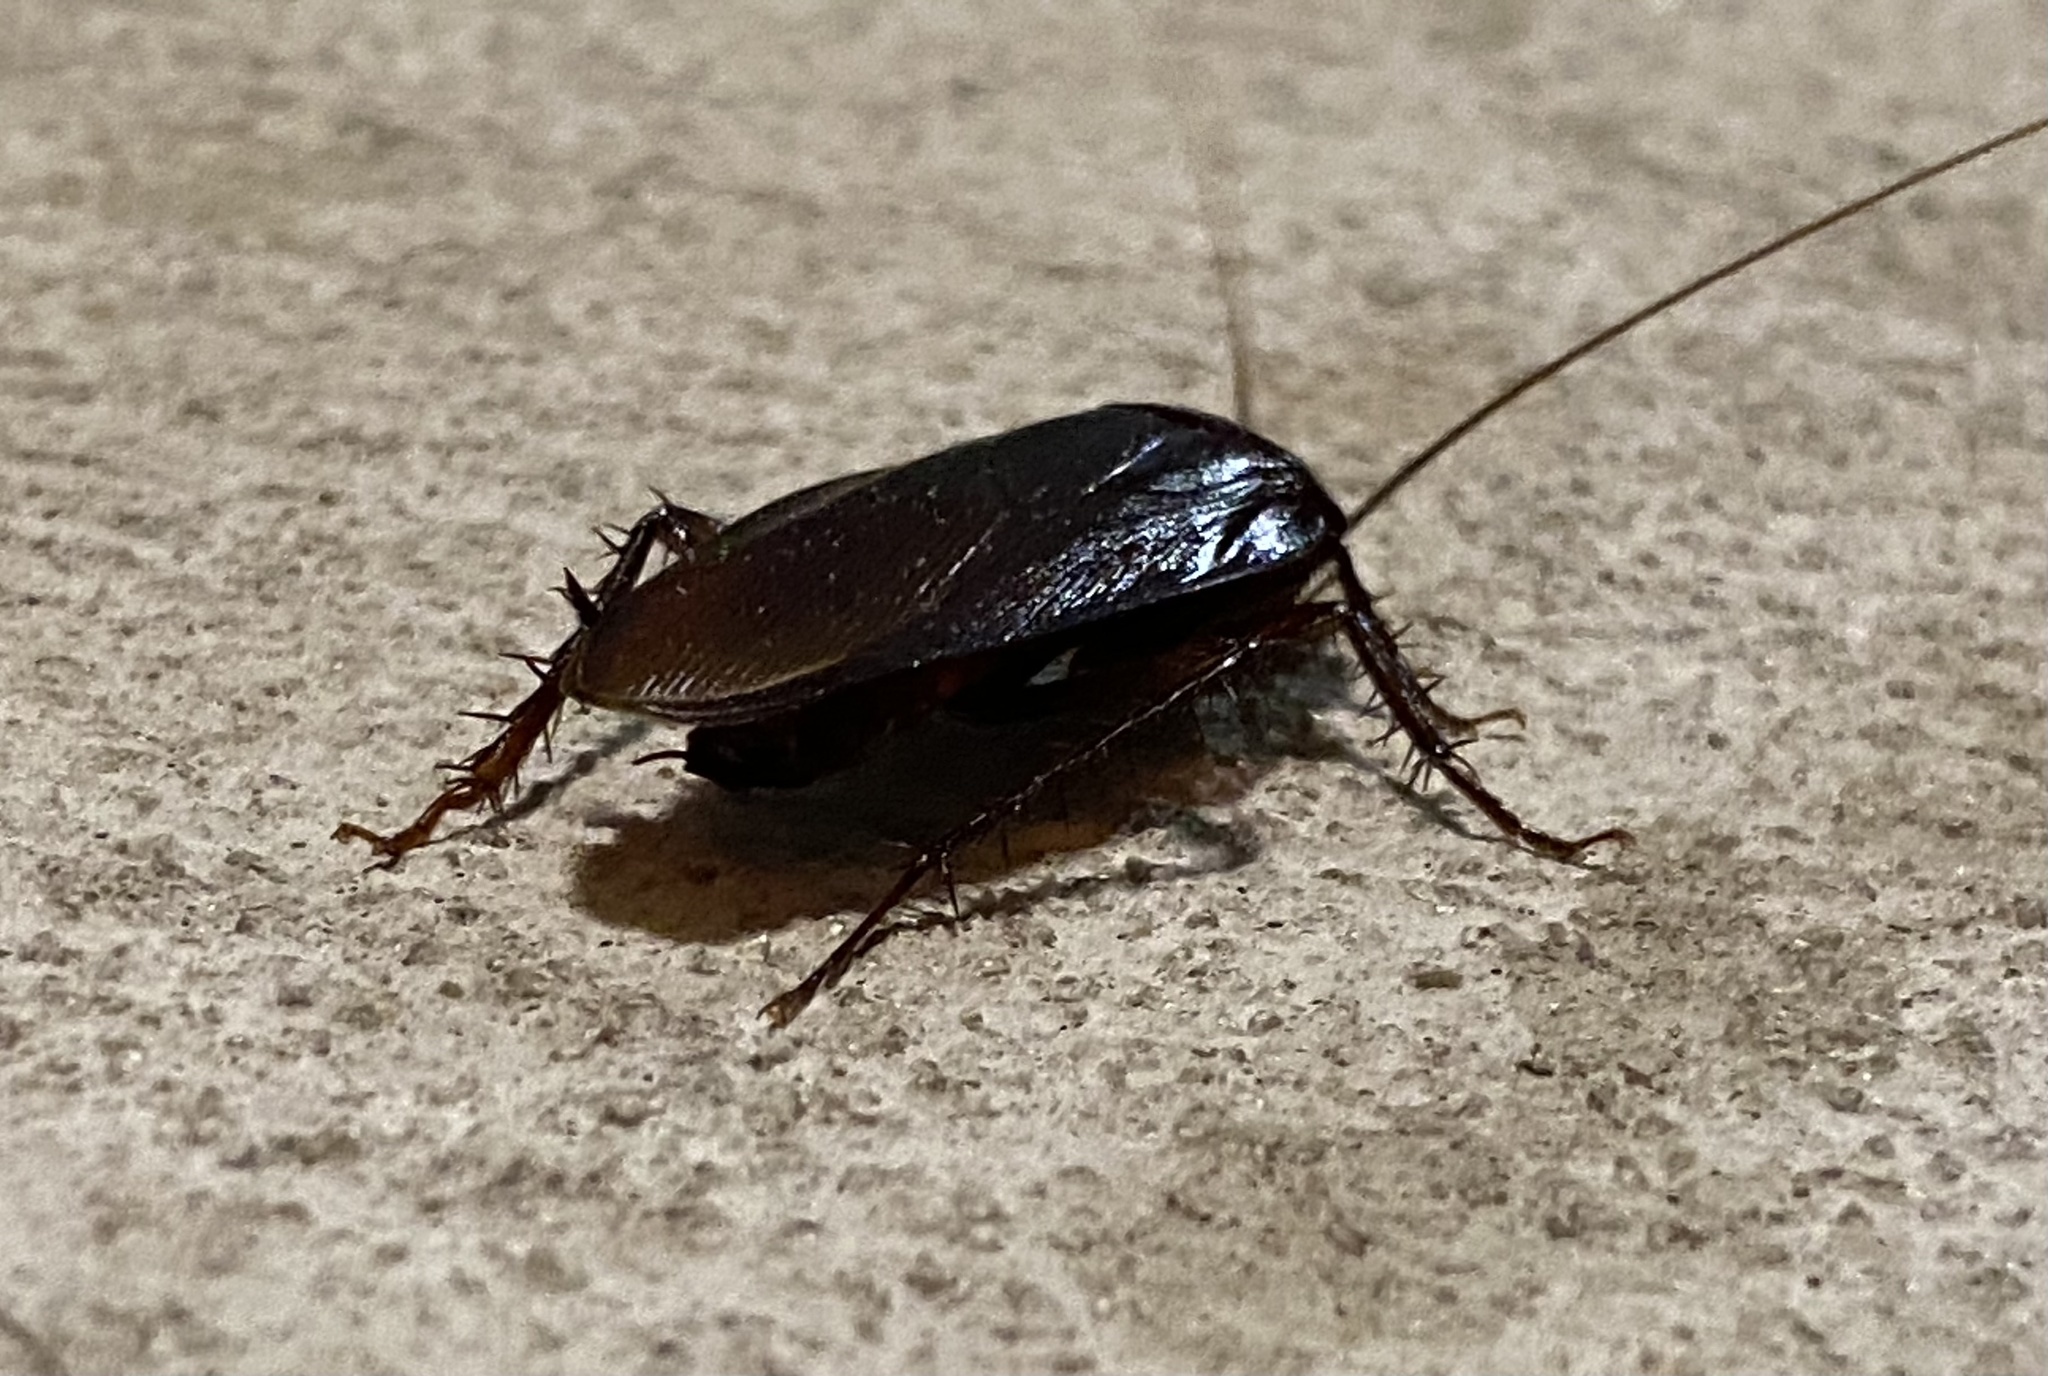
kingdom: Animalia
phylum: Arthropoda
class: Insecta
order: Blattodea
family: Blattidae
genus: Periplaneta
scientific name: Periplaneta fuliginosa
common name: Smokeybrown cockroad
